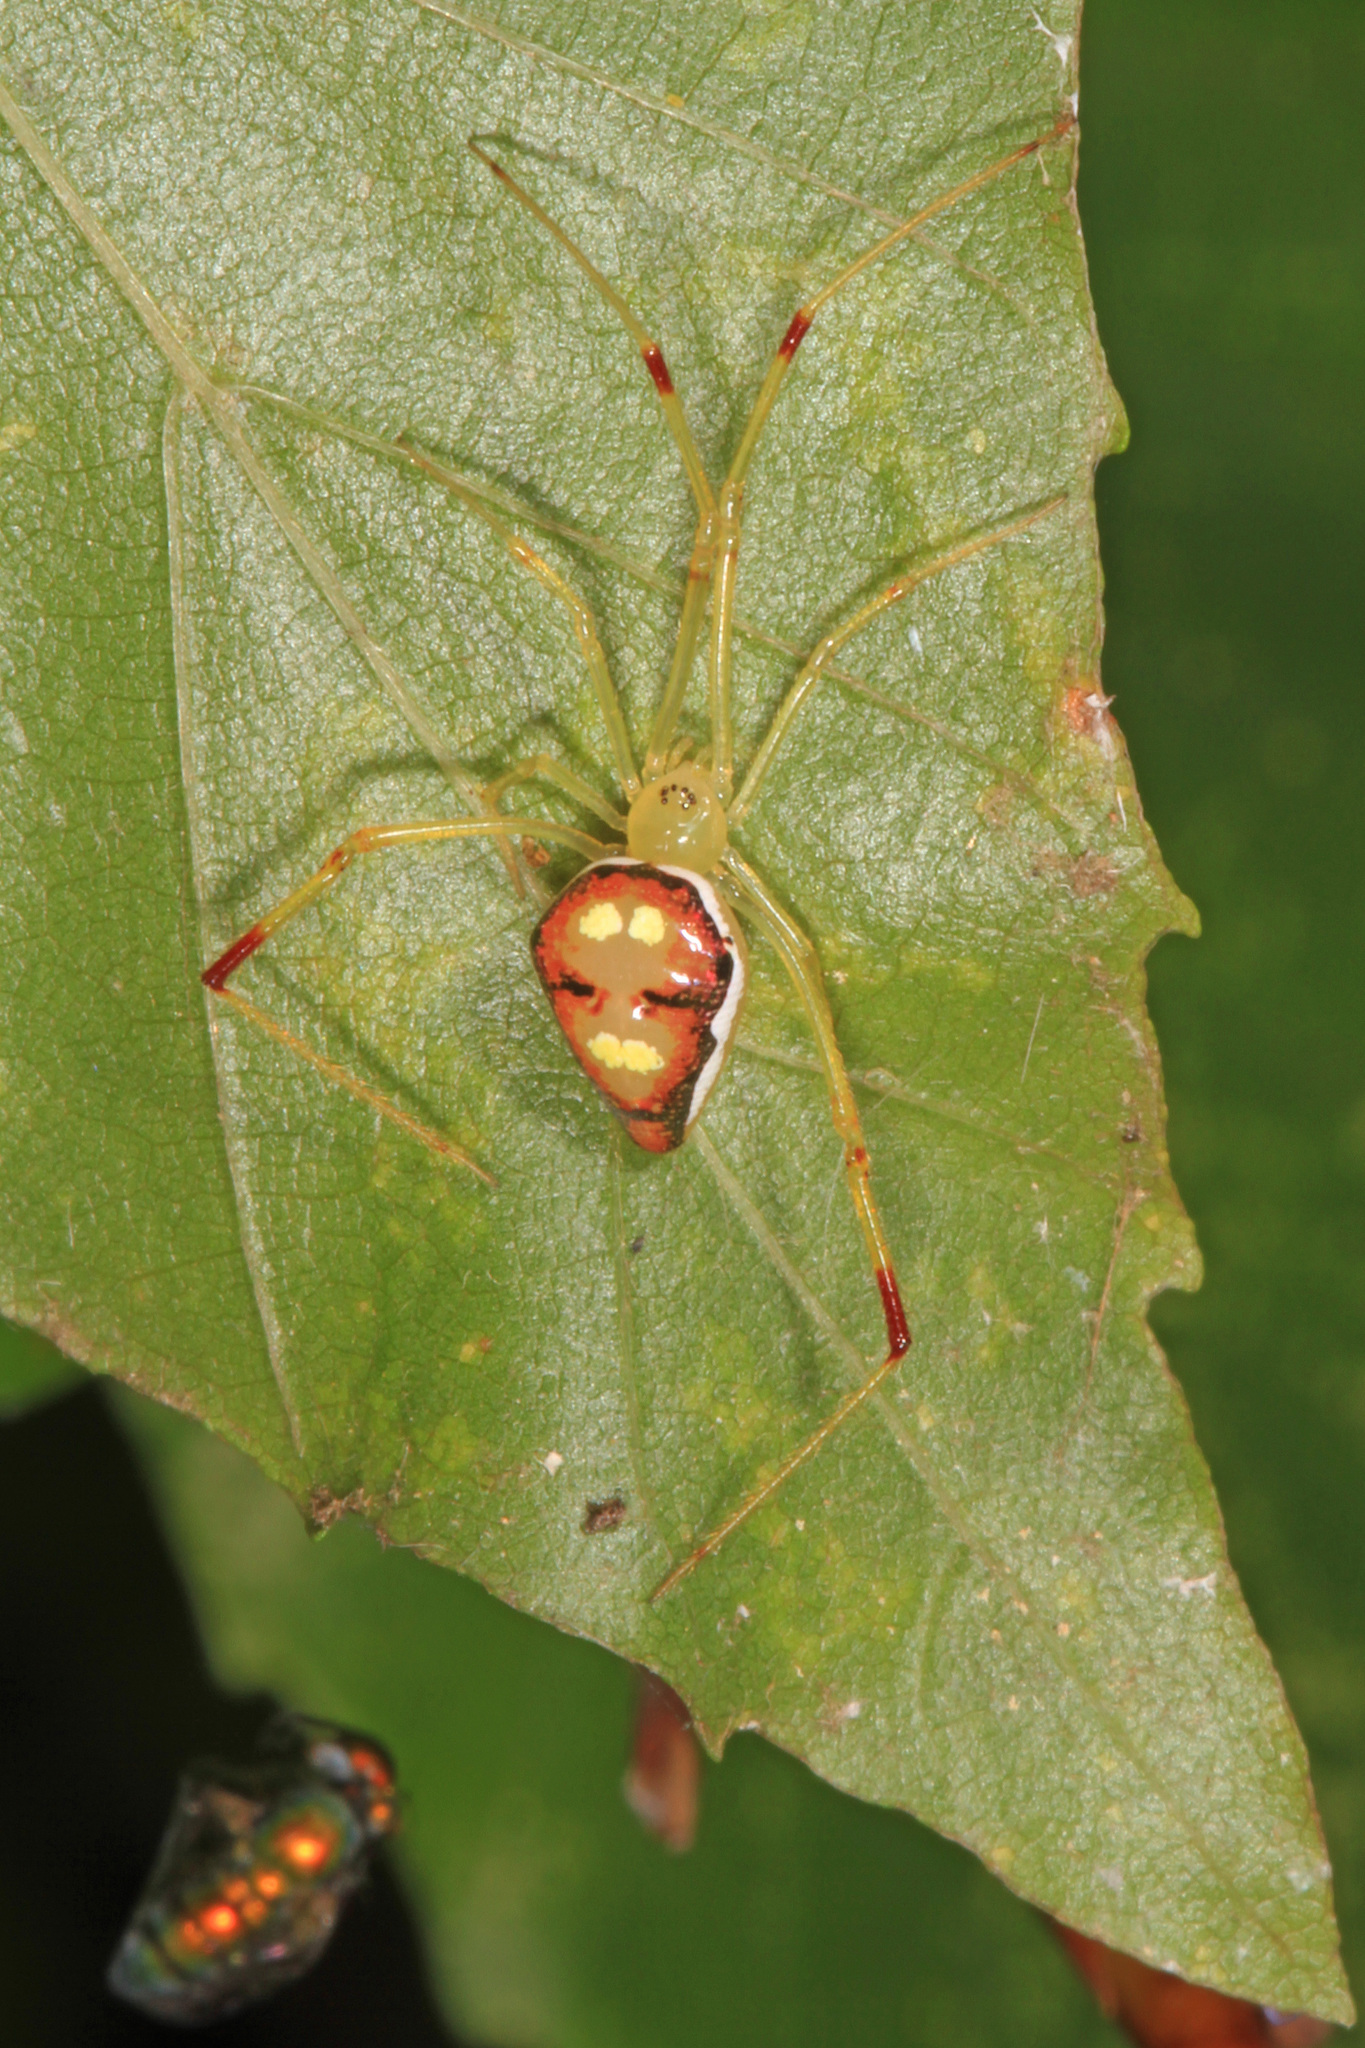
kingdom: Animalia
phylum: Arthropoda
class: Arachnida
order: Araneae
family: Theridiidae
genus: Spintharus
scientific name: Spintharus flavidus
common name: Cobweb spiders
